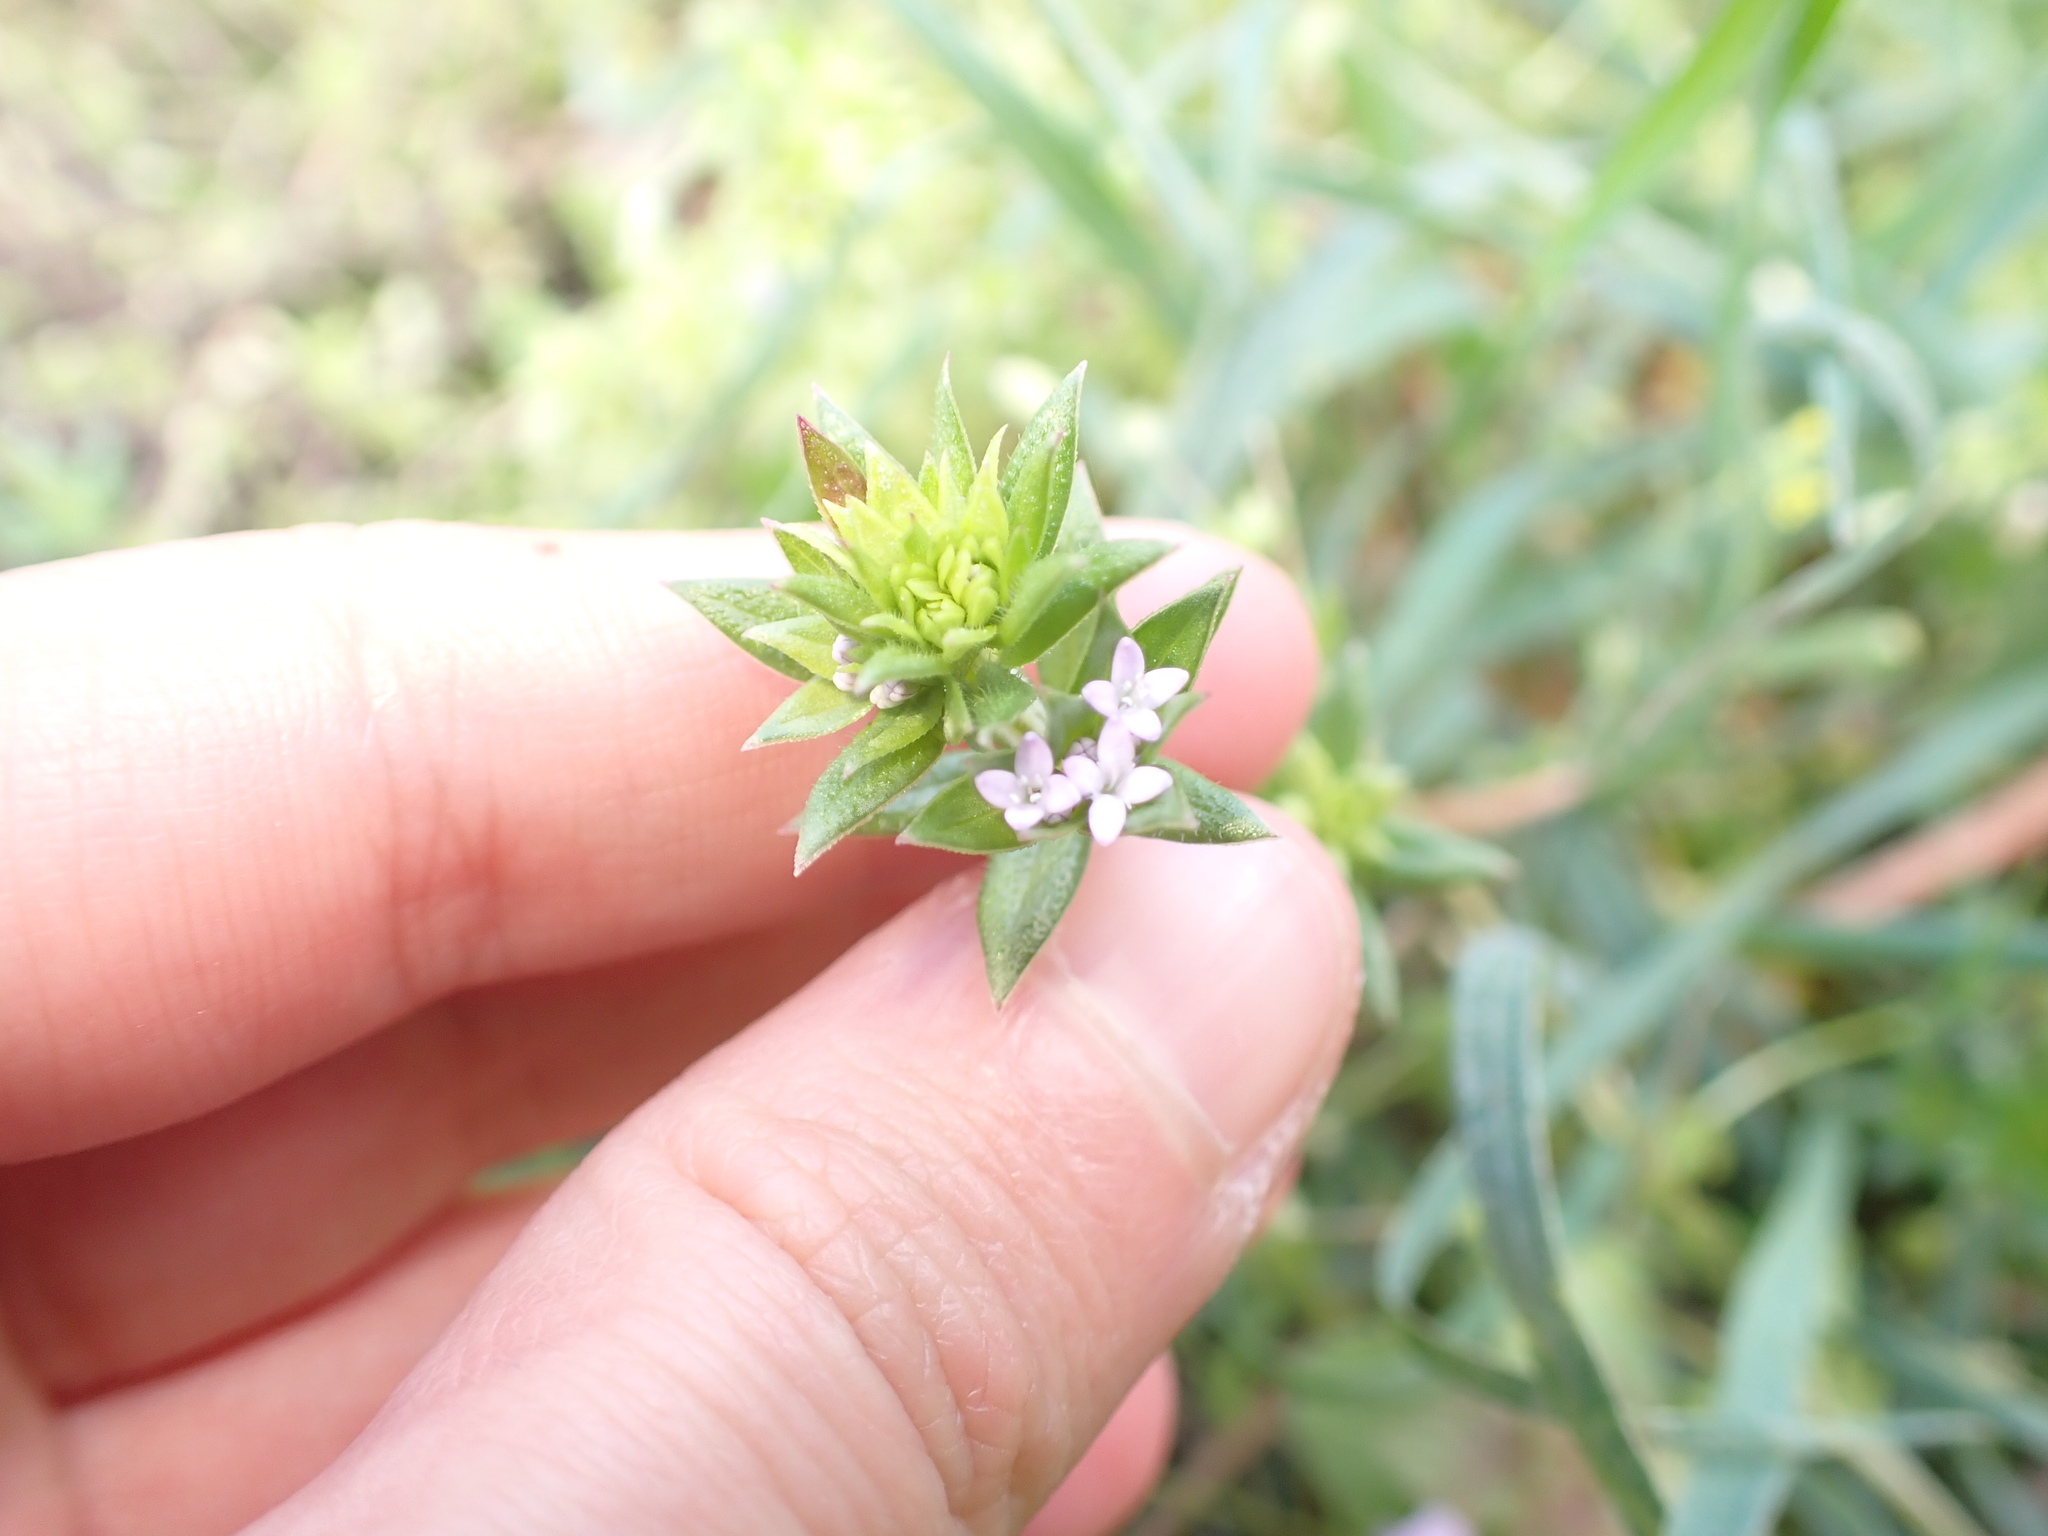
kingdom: Plantae
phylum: Tracheophyta
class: Magnoliopsida
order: Gentianales
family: Rubiaceae
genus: Sherardia
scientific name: Sherardia arvensis
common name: Field madder
